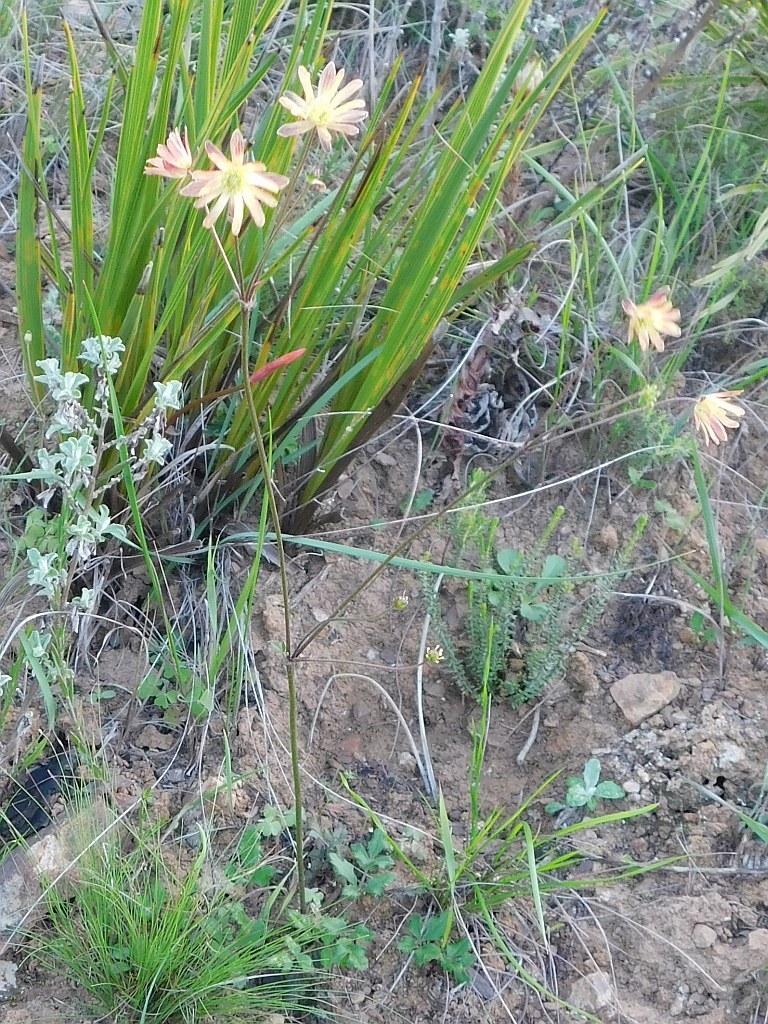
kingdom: Plantae
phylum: Tracheophyta
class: Magnoliopsida
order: Ranunculales
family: Ranunculaceae
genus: Knowltonia
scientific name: Knowltonia anemonoides
